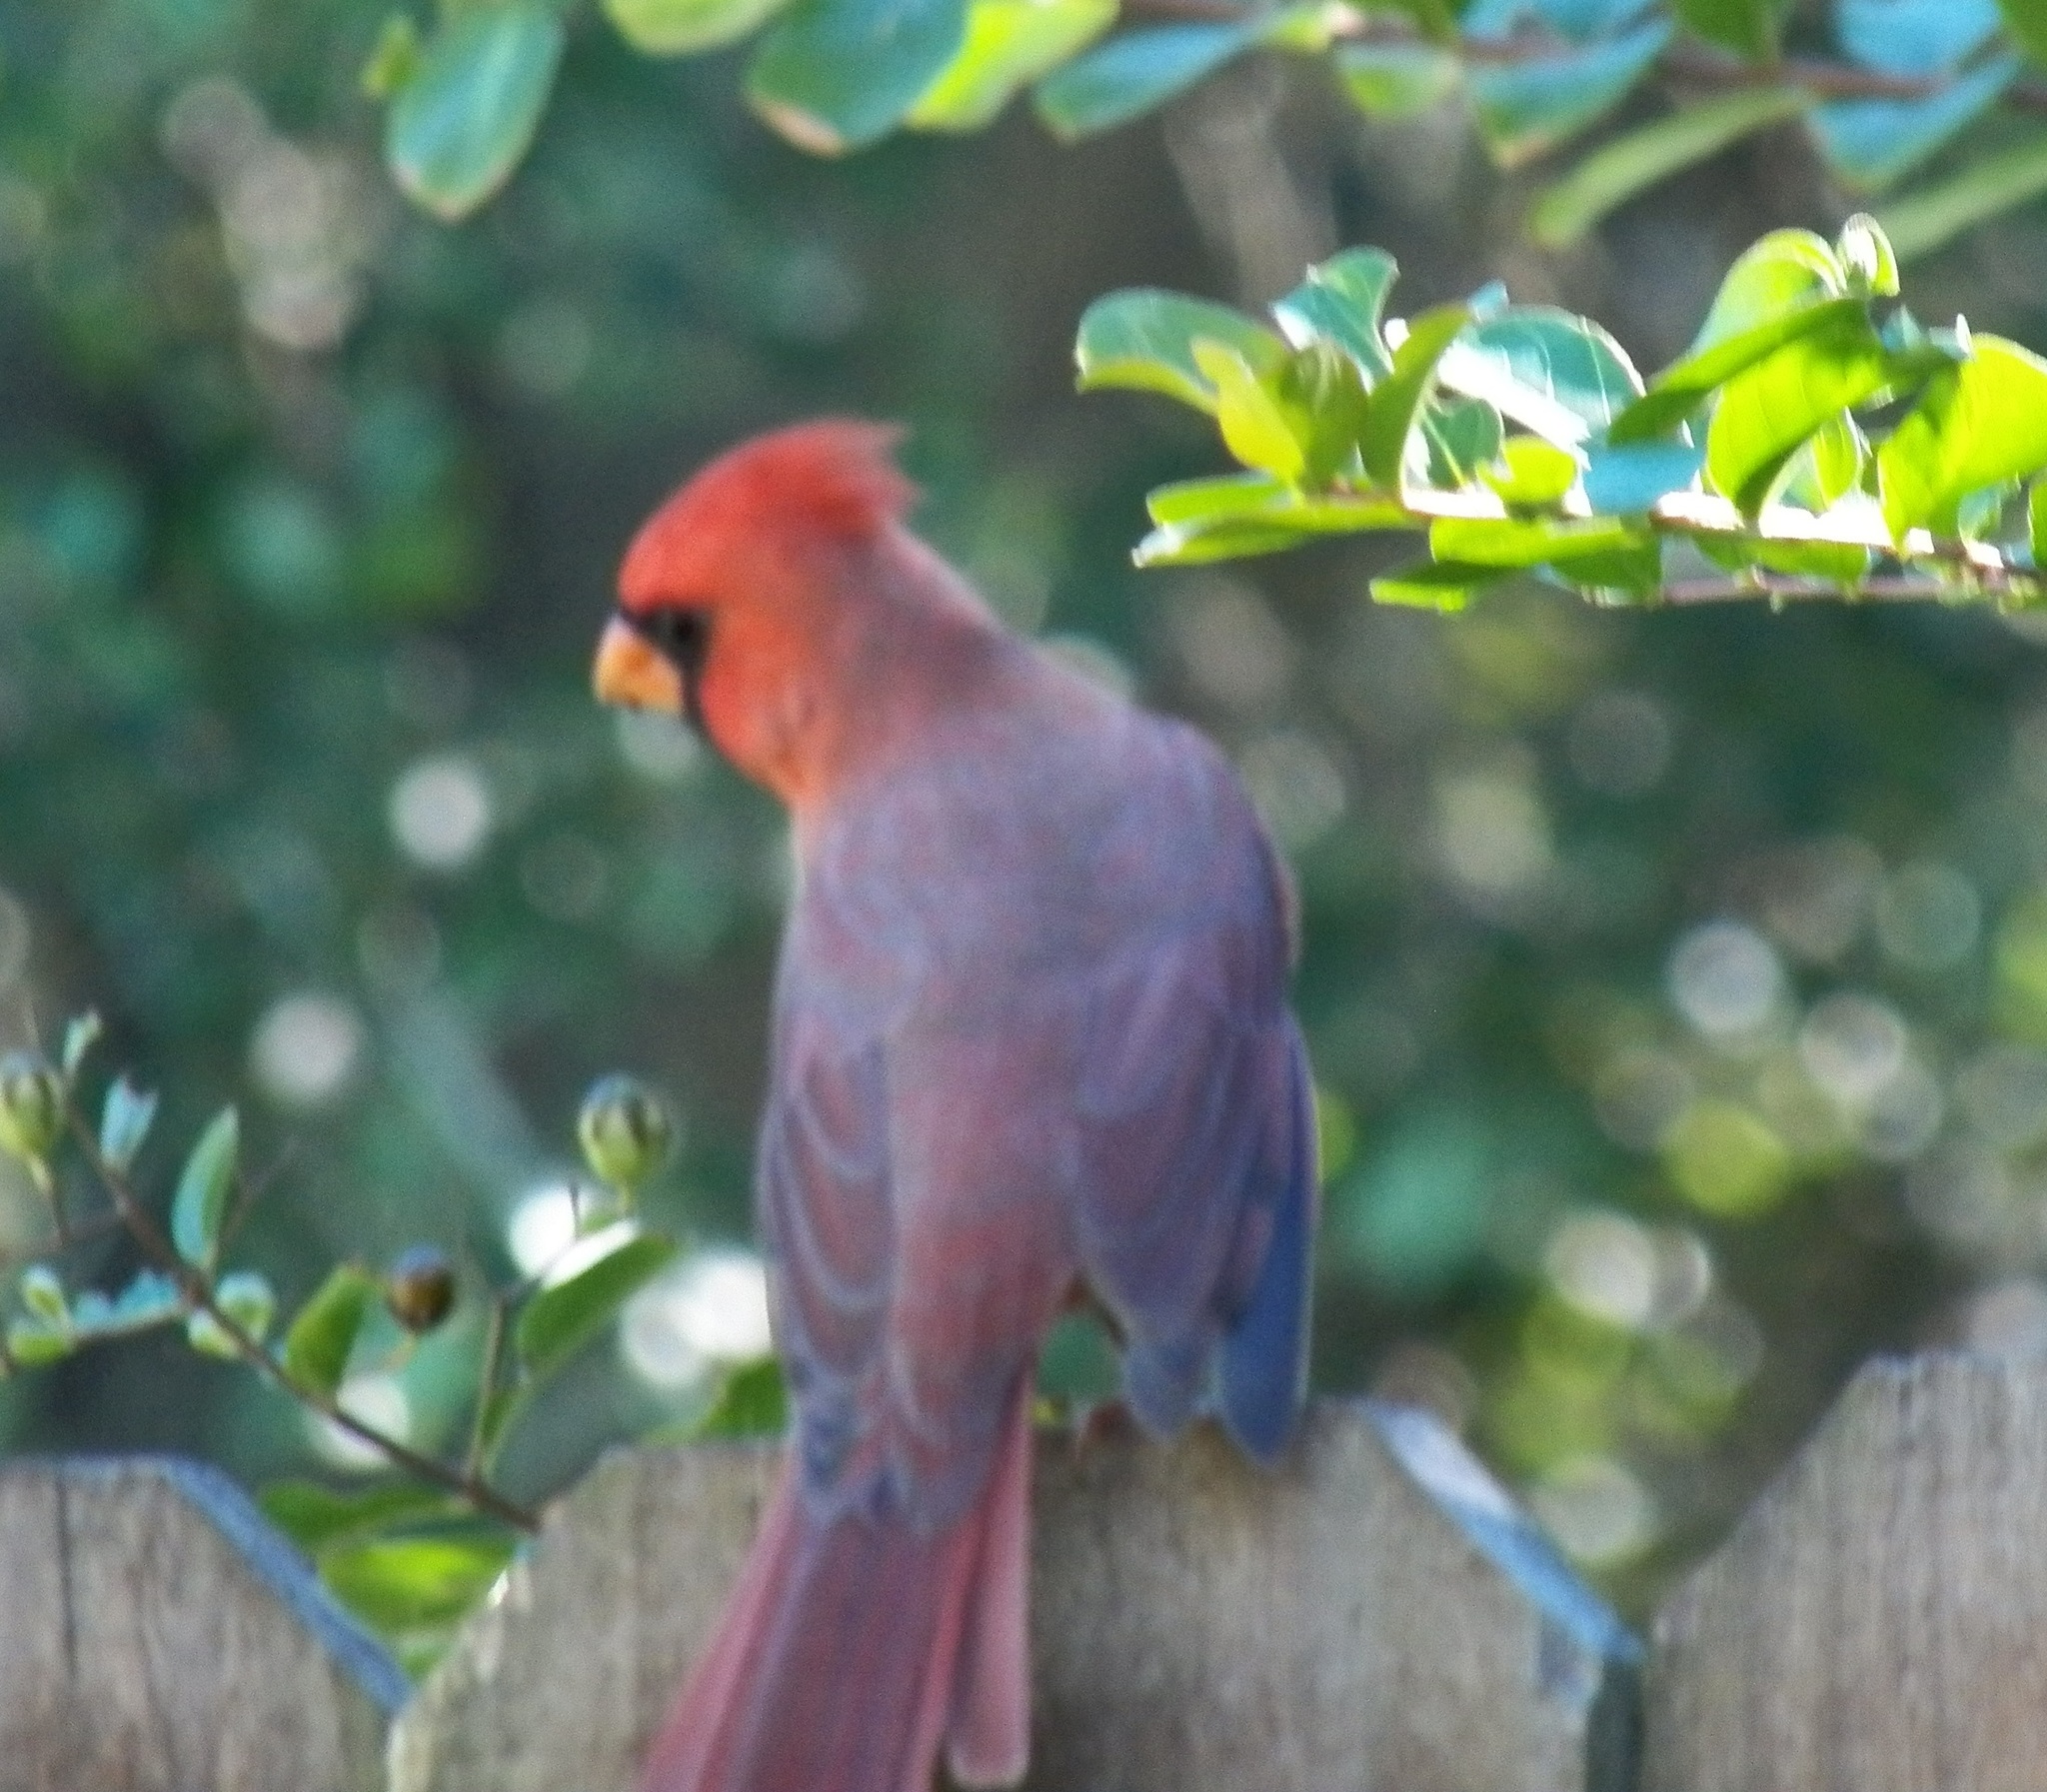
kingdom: Animalia
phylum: Chordata
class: Aves
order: Passeriformes
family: Cardinalidae
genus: Cardinalis
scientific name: Cardinalis cardinalis
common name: Northern cardinal
